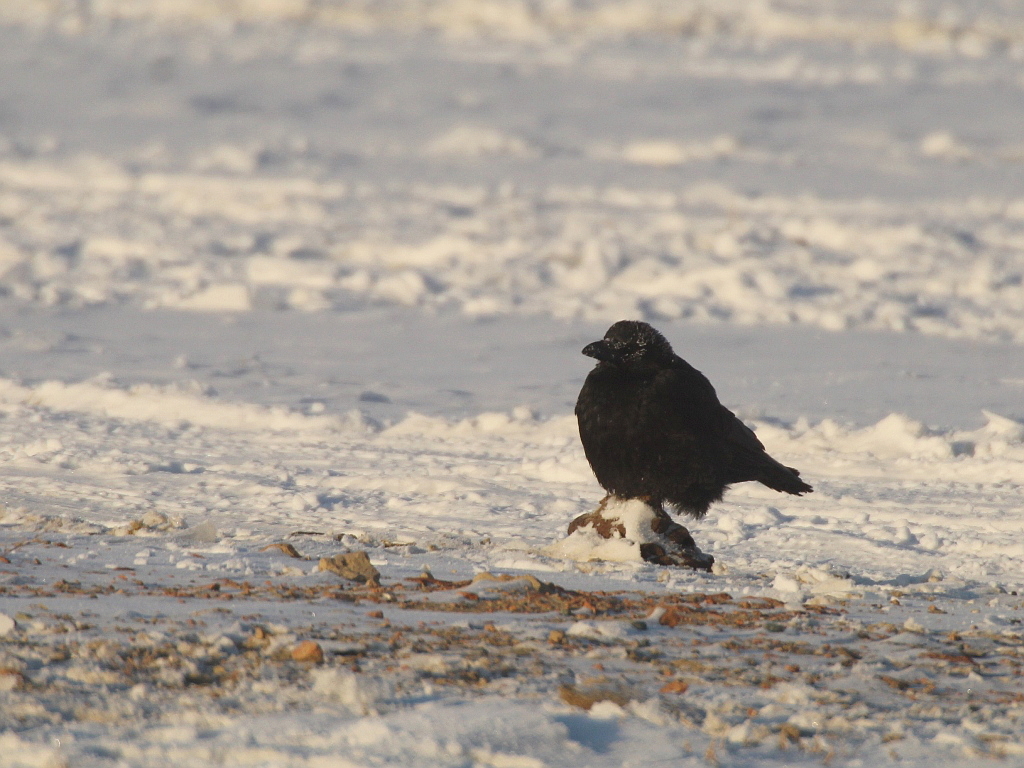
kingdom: Animalia
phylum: Chordata
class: Aves
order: Passeriformes
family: Corvidae
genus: Corvus
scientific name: Corvus corone
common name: Carrion crow
